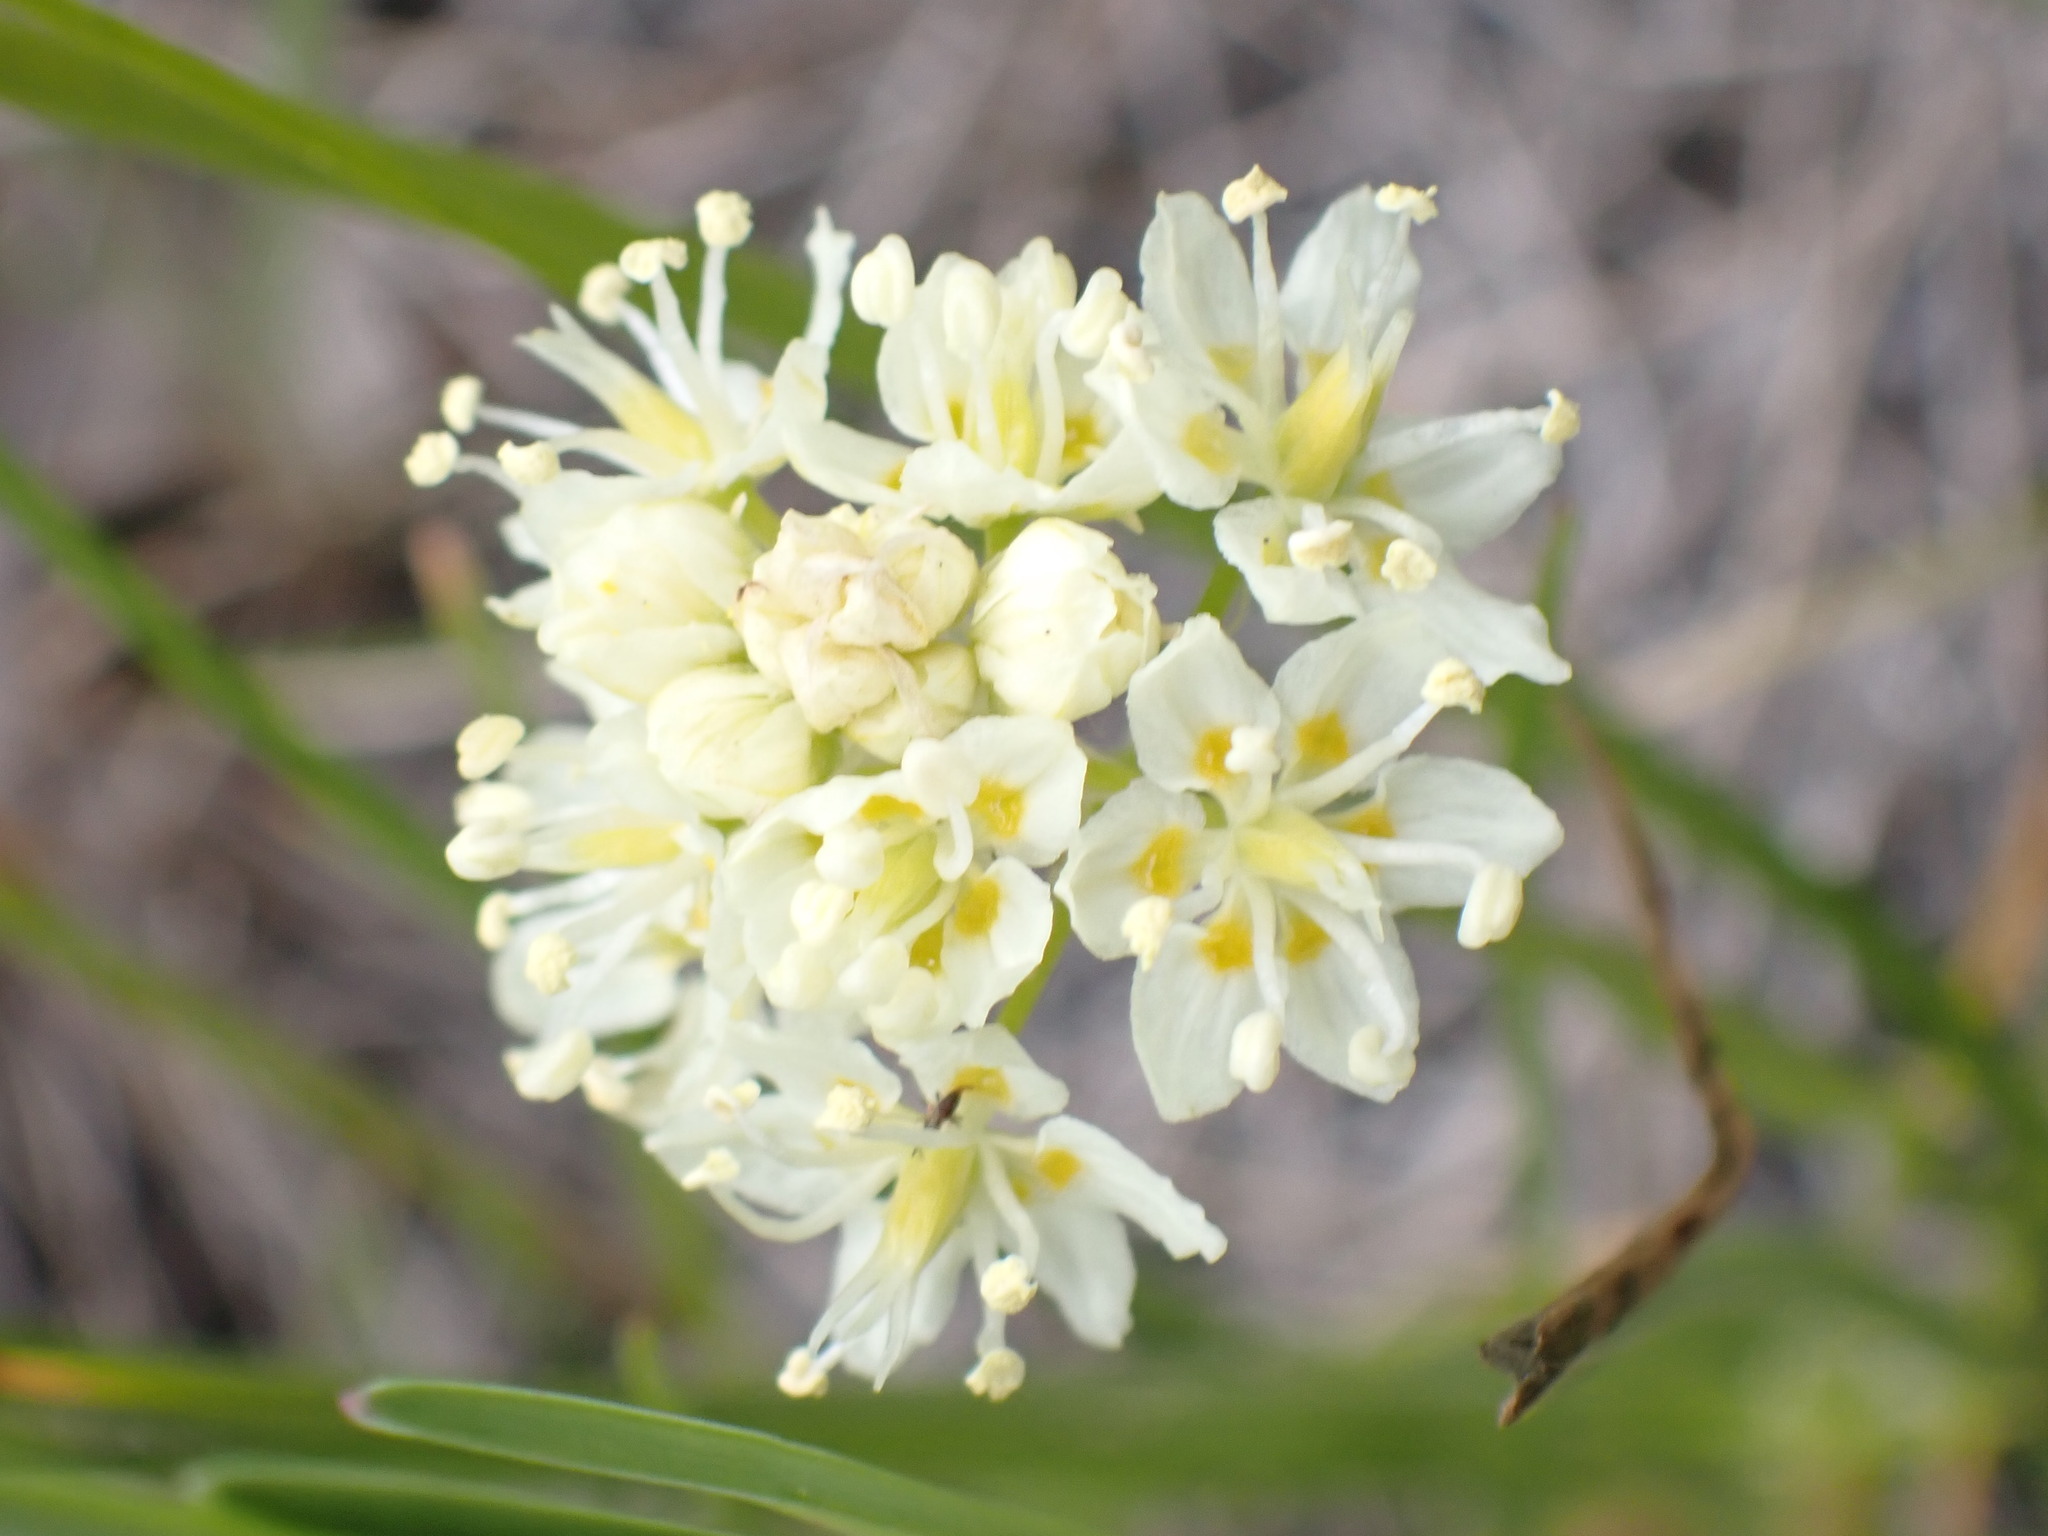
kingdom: Plantae
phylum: Tracheophyta
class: Liliopsida
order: Liliales
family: Melanthiaceae
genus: Toxicoscordion
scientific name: Toxicoscordion venenosum
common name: Meadow death camas
